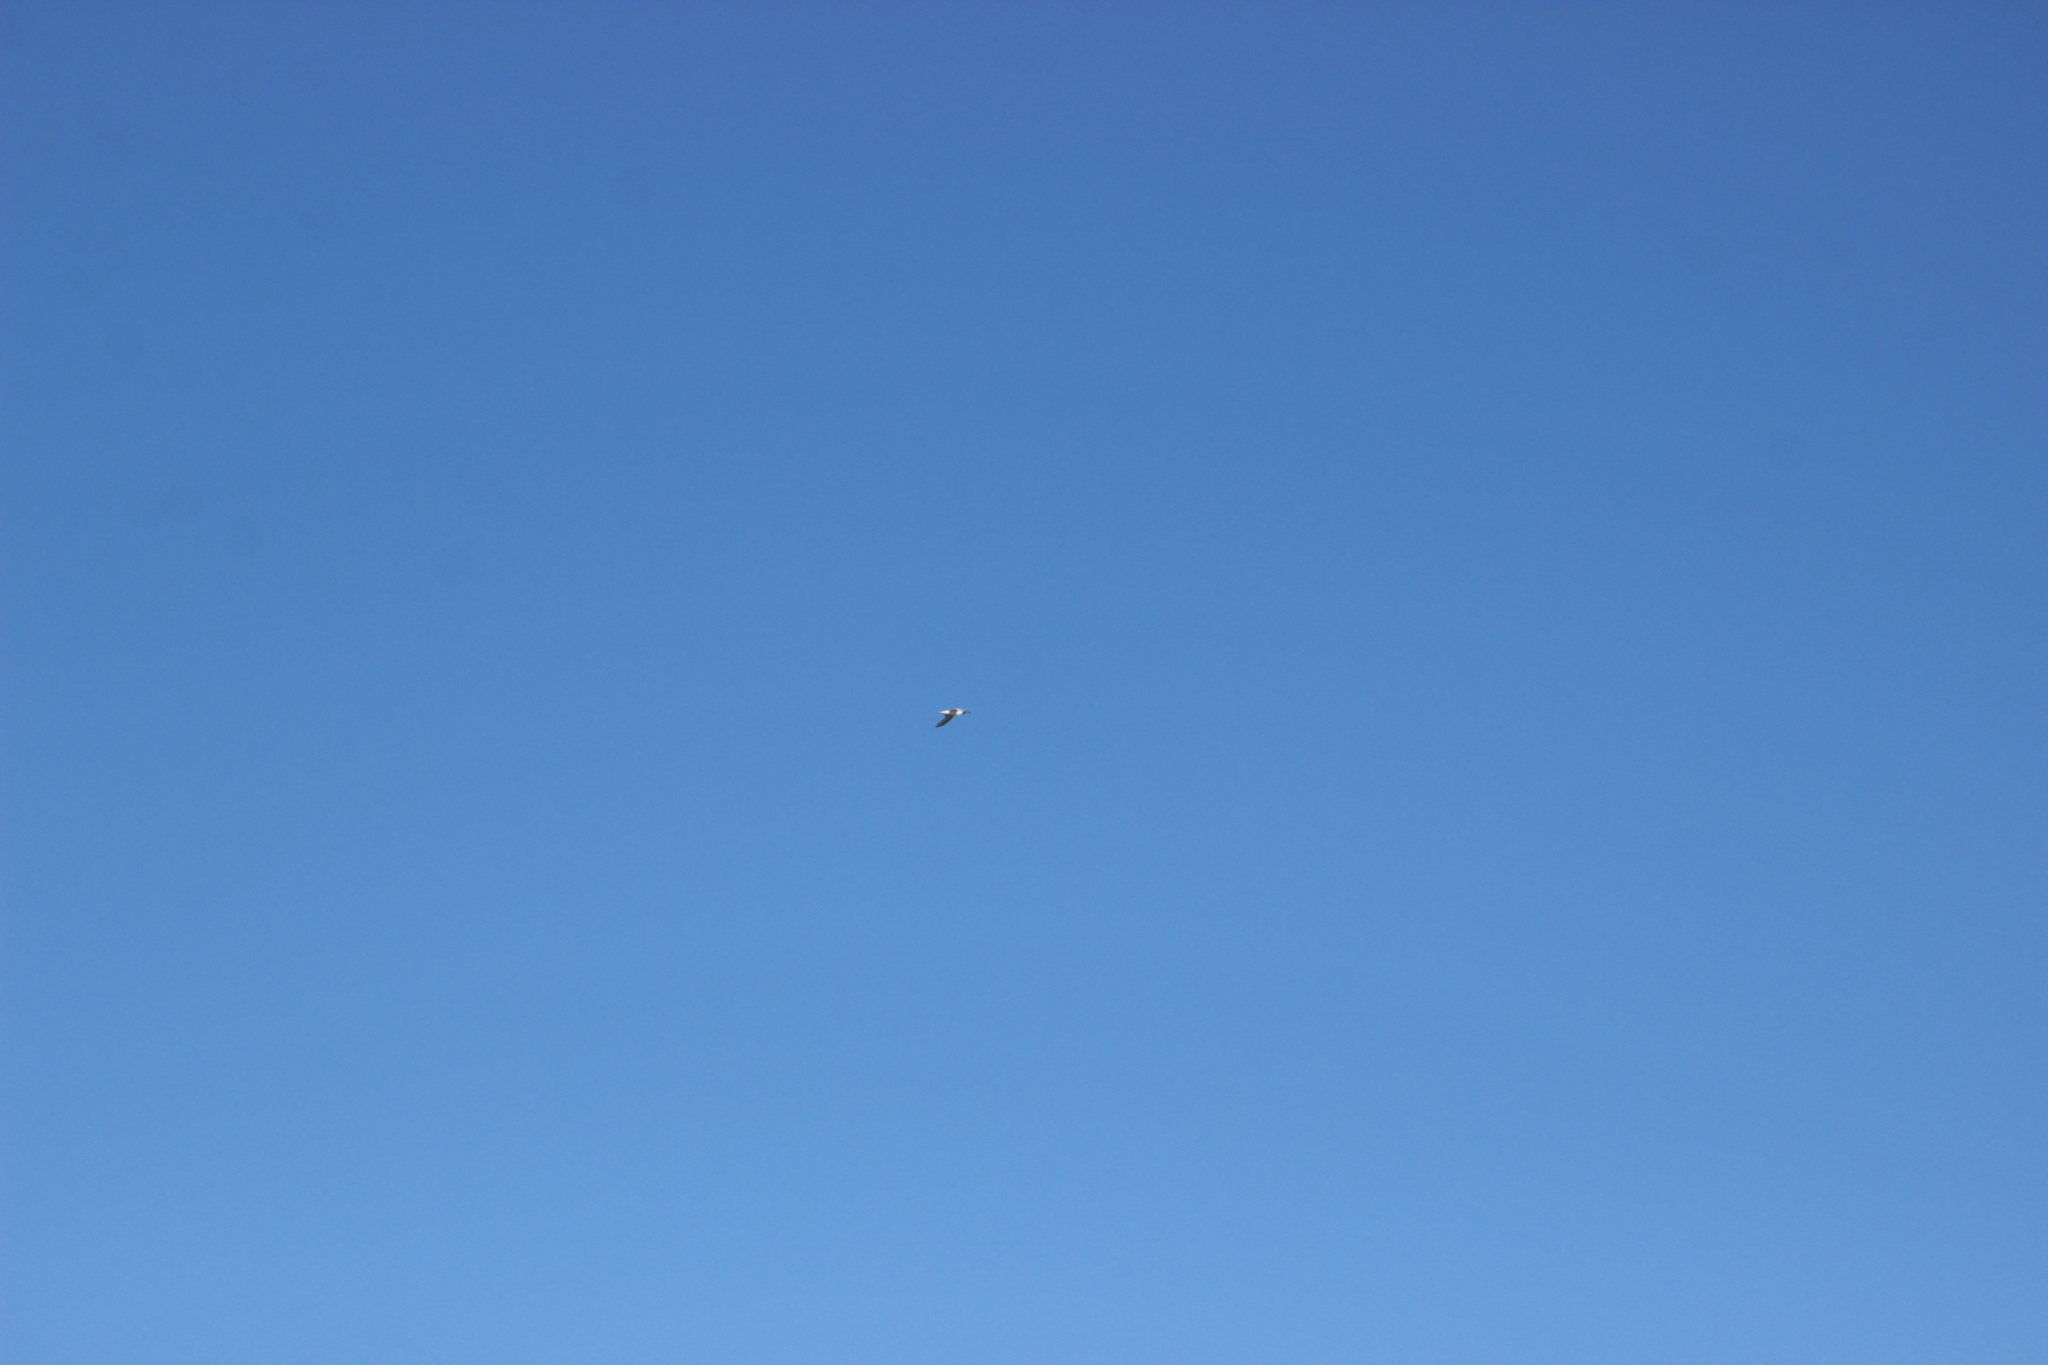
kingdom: Animalia
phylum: Chordata
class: Aves
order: Charadriiformes
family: Laridae
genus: Sterna
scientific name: Sterna striata
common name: White-fronted tern
